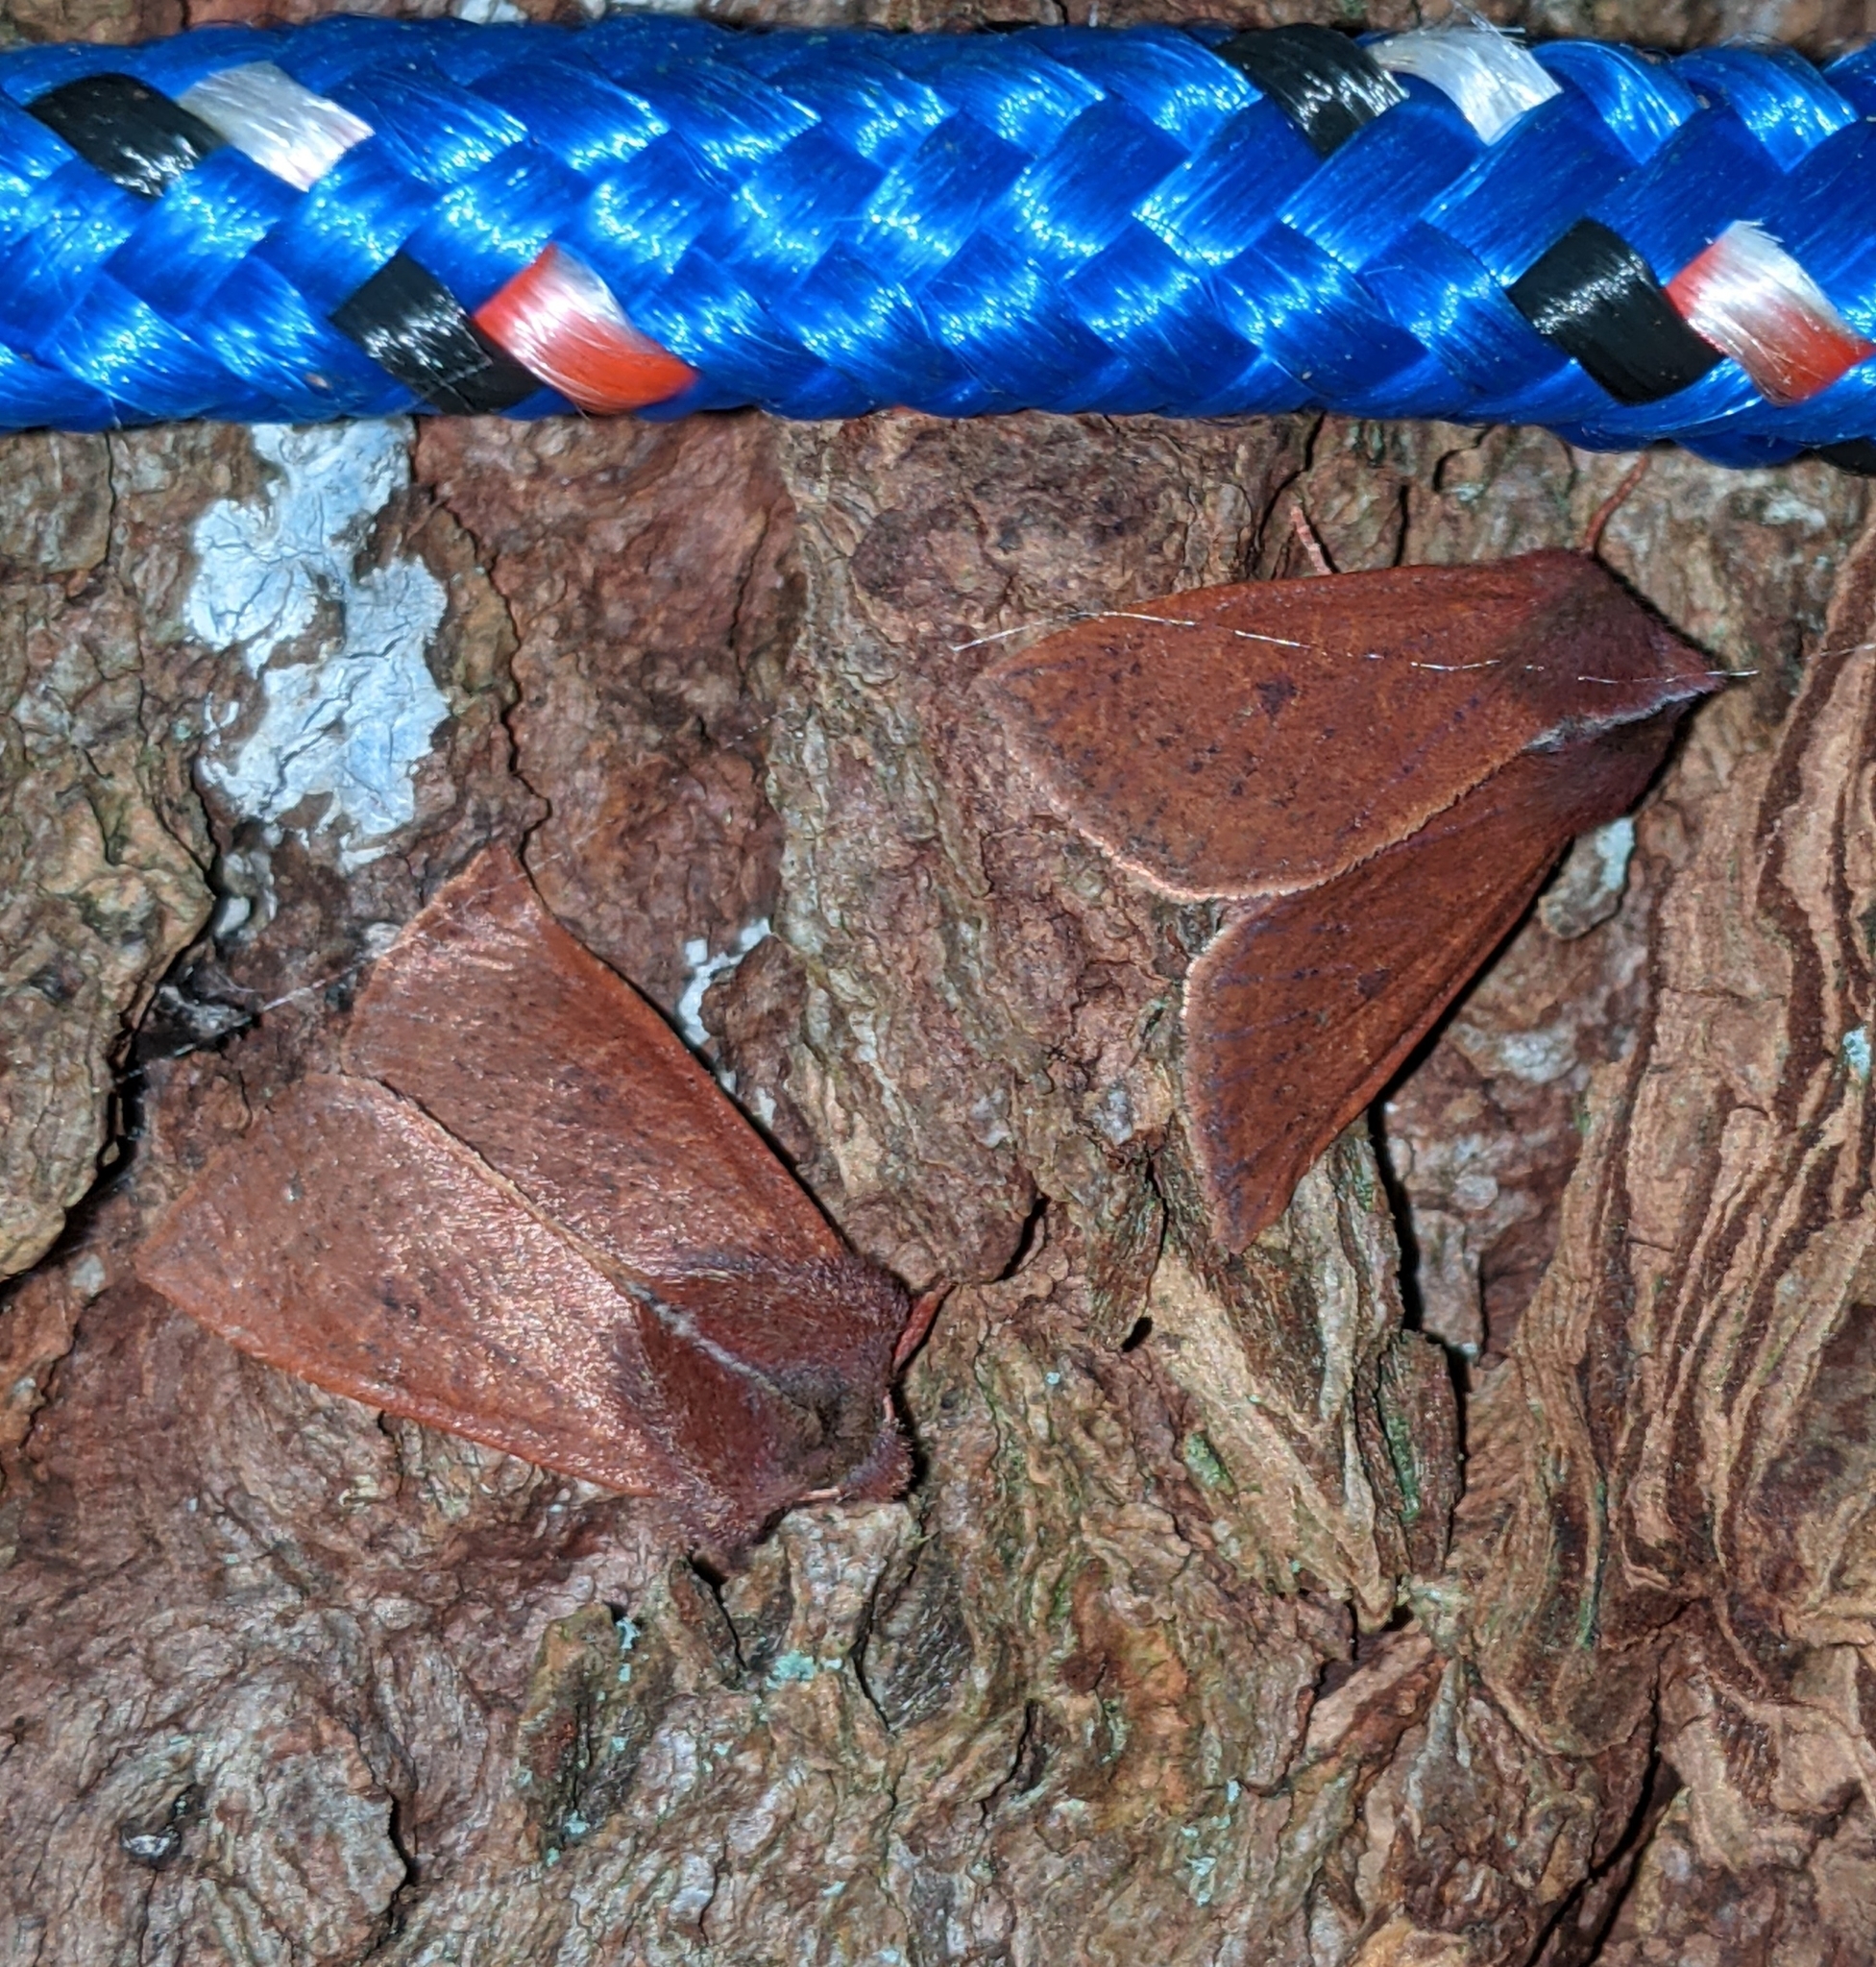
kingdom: Animalia
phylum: Arthropoda
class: Insecta
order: Lepidoptera
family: Noctuidae
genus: Orthosia
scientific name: Orthosia transparens
